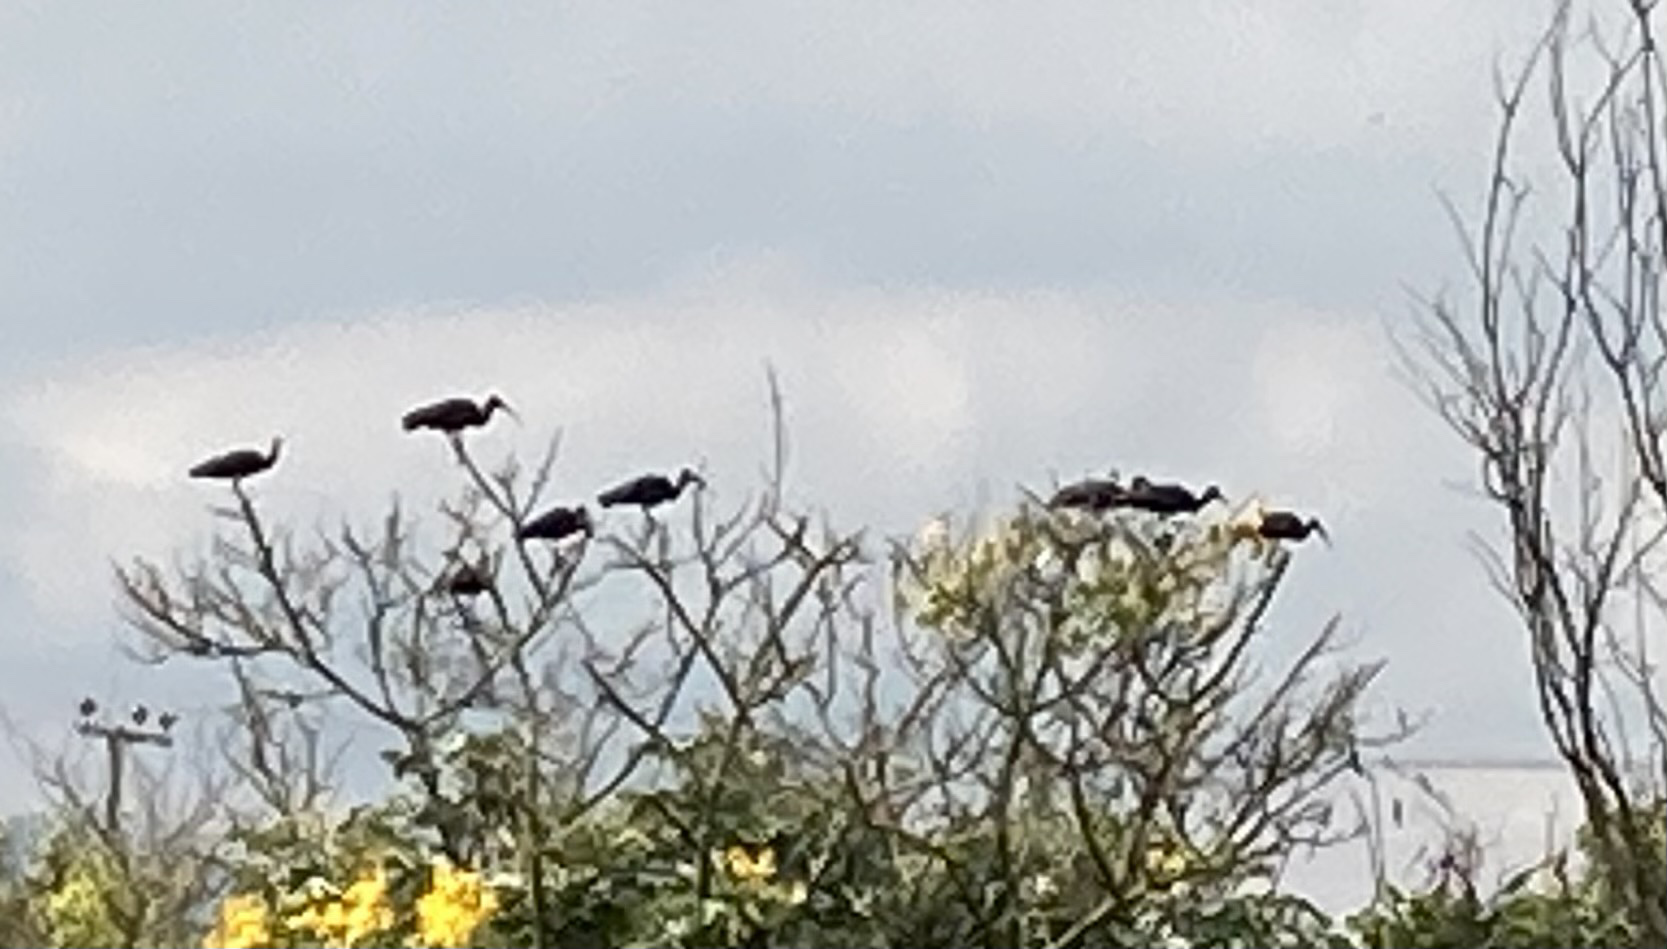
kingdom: Animalia
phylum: Chordata
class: Aves
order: Pelecaniformes
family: Threskiornithidae
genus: Phimosus
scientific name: Phimosus infuscatus
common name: Bare-faced ibis
